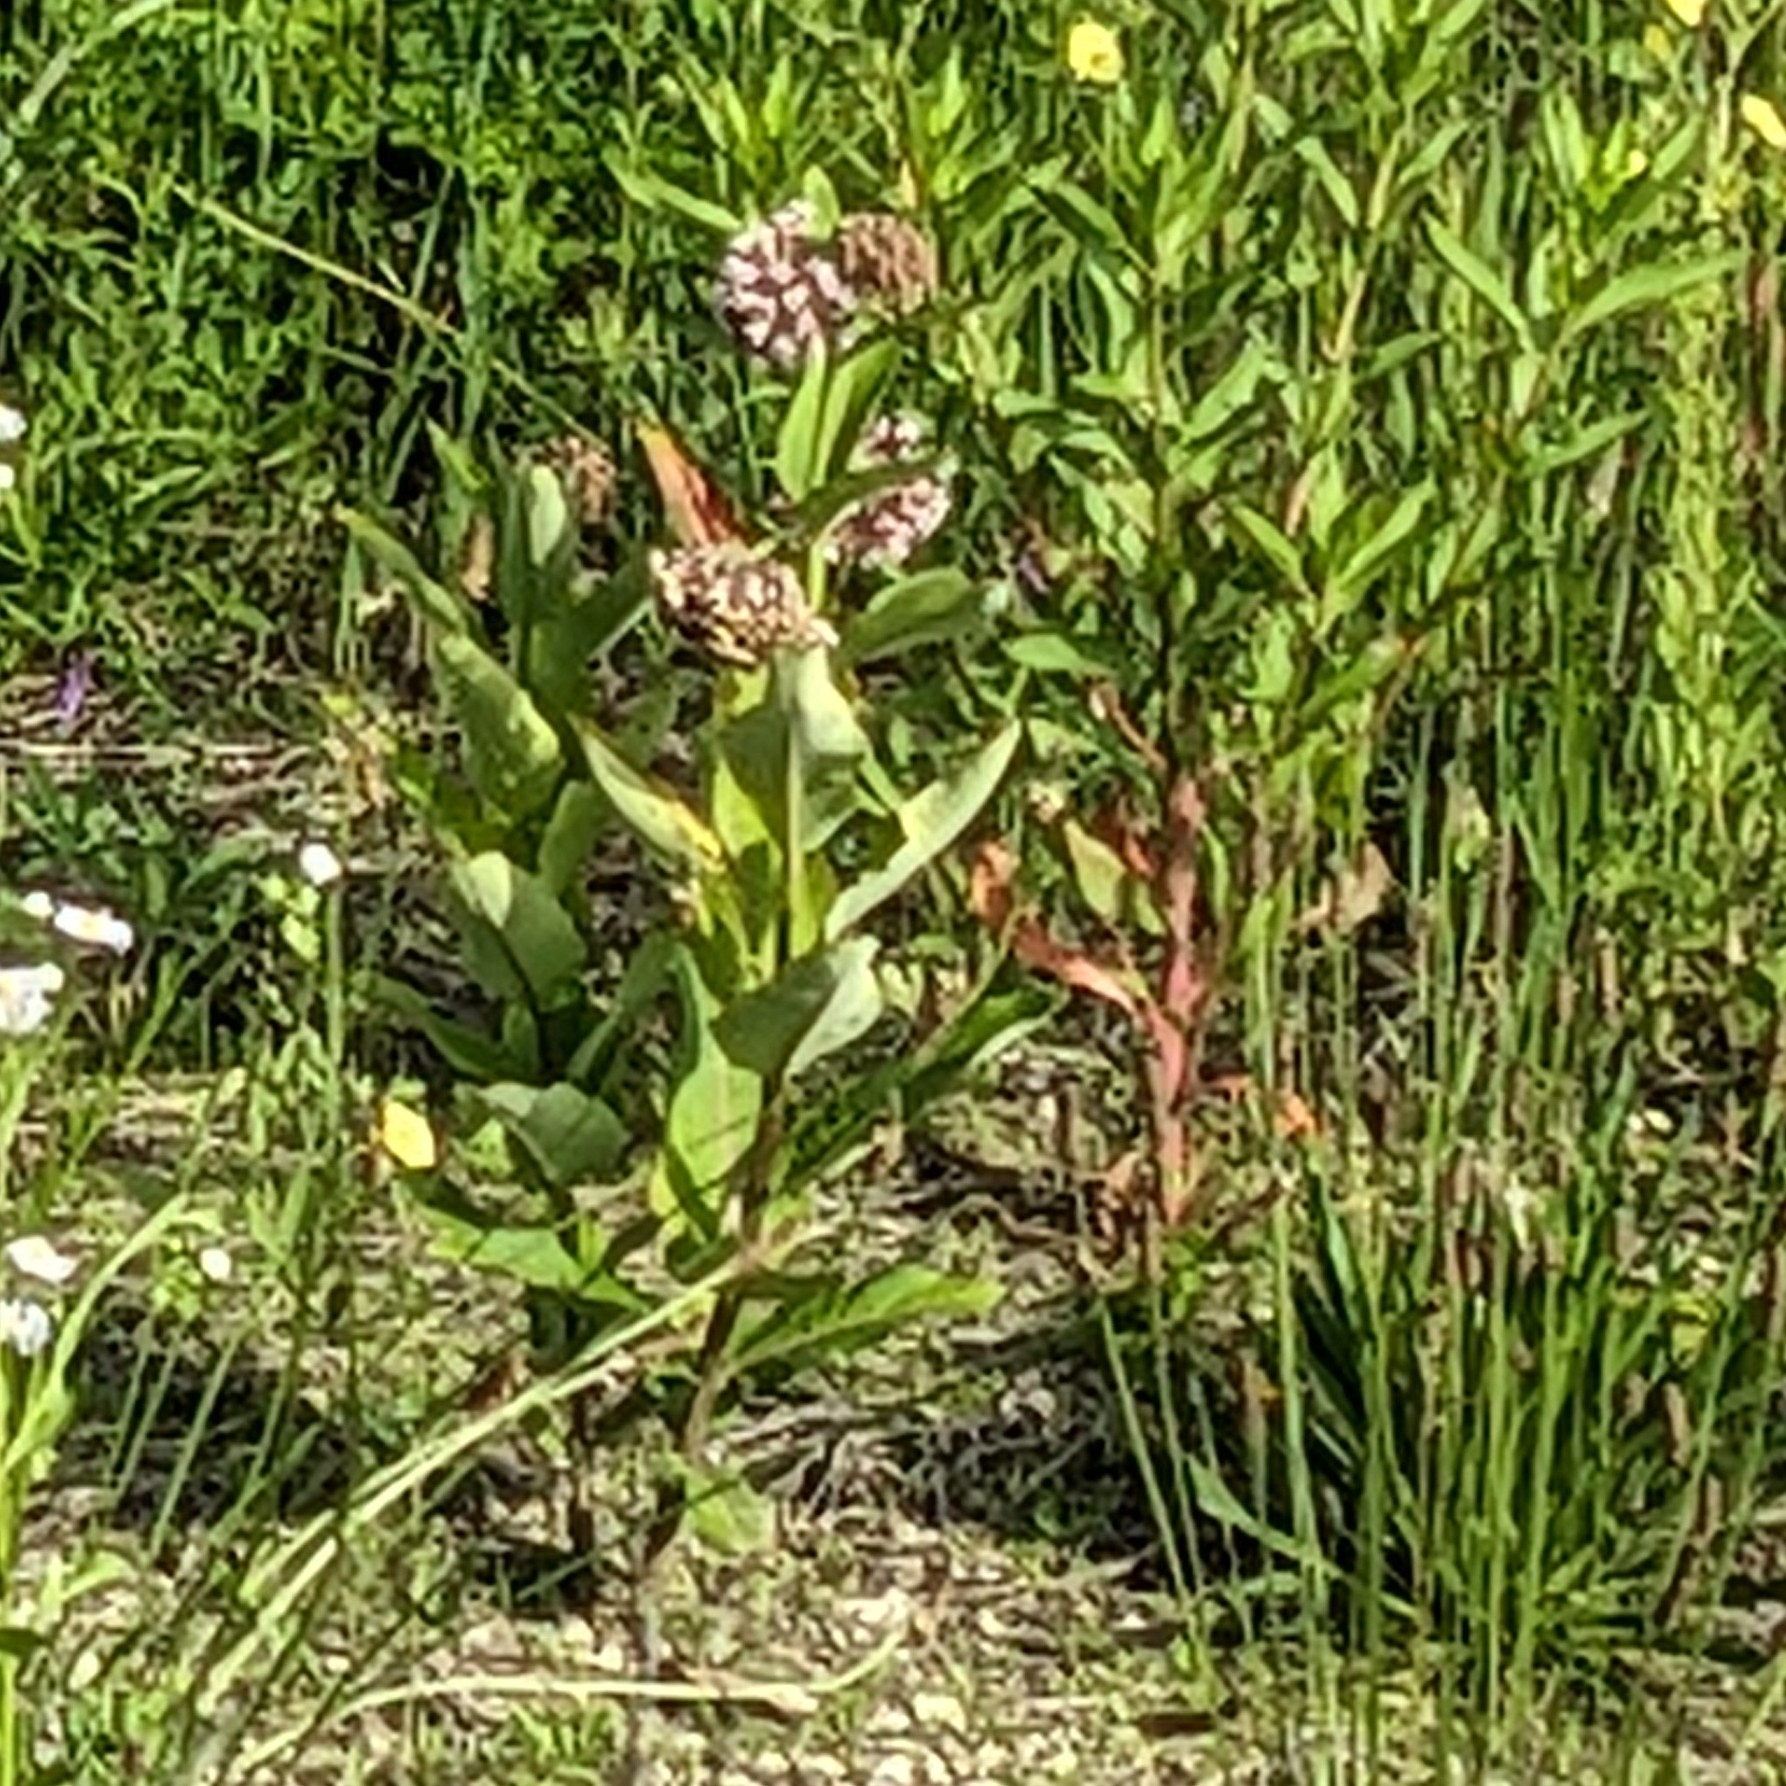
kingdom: Plantae
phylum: Tracheophyta
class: Magnoliopsida
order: Gentianales
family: Apocynaceae
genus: Asclepias
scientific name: Asclepias syriaca
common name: Common milkweed
